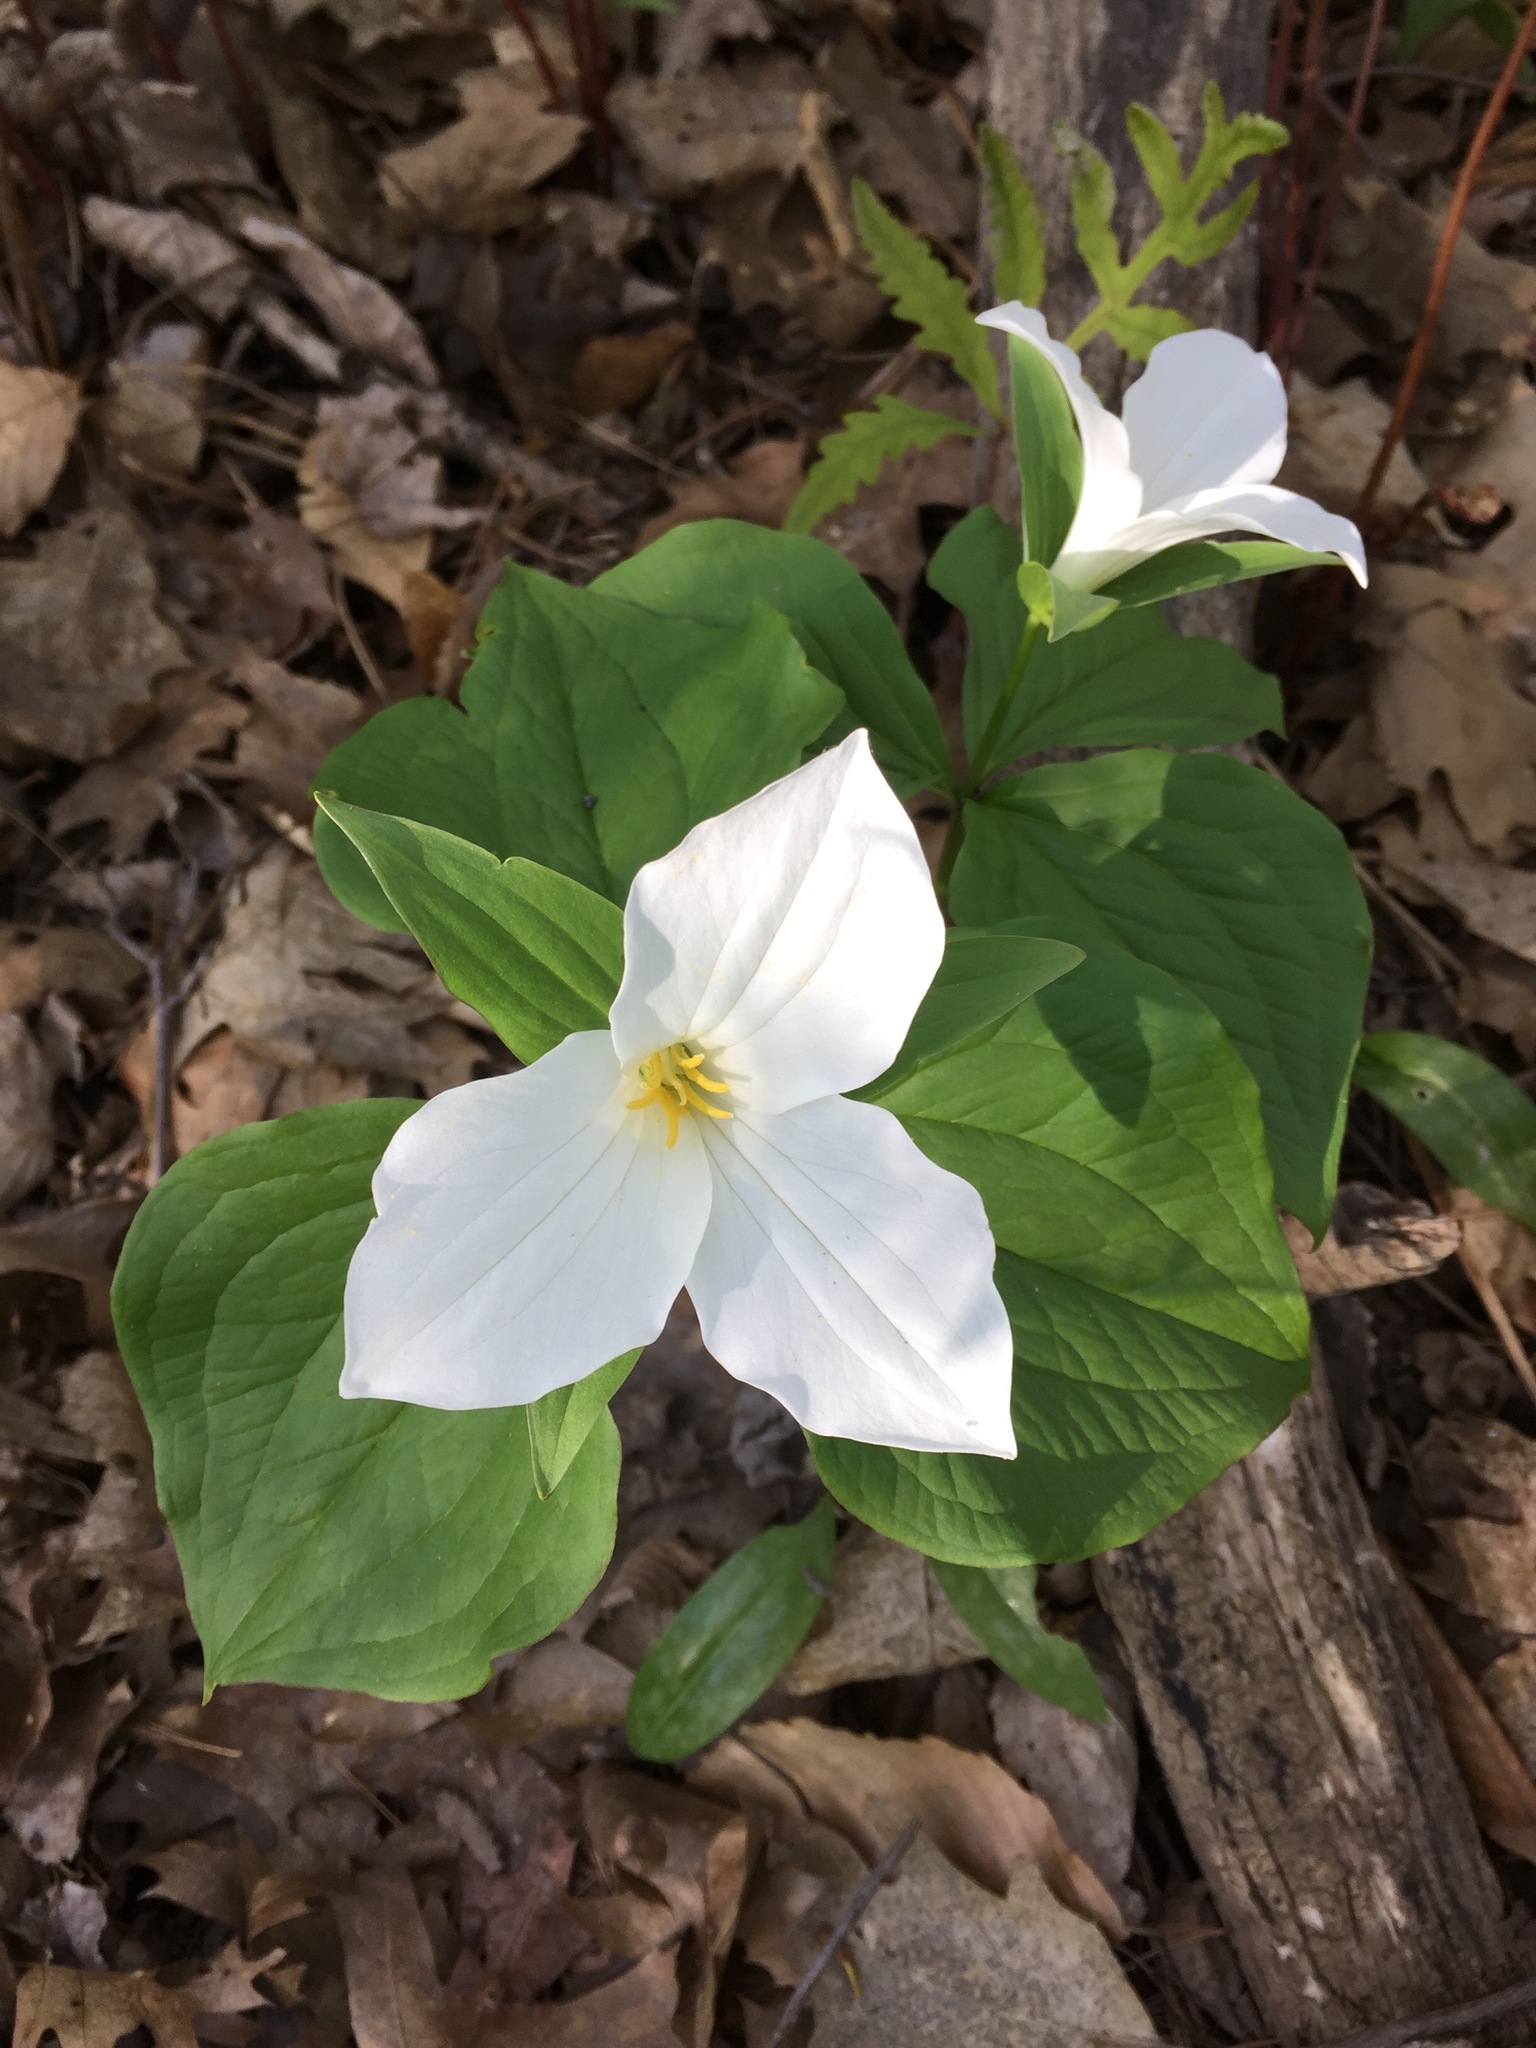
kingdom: Plantae
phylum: Tracheophyta
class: Liliopsida
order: Liliales
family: Melanthiaceae
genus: Trillium
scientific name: Trillium grandiflorum
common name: Great white trillium
